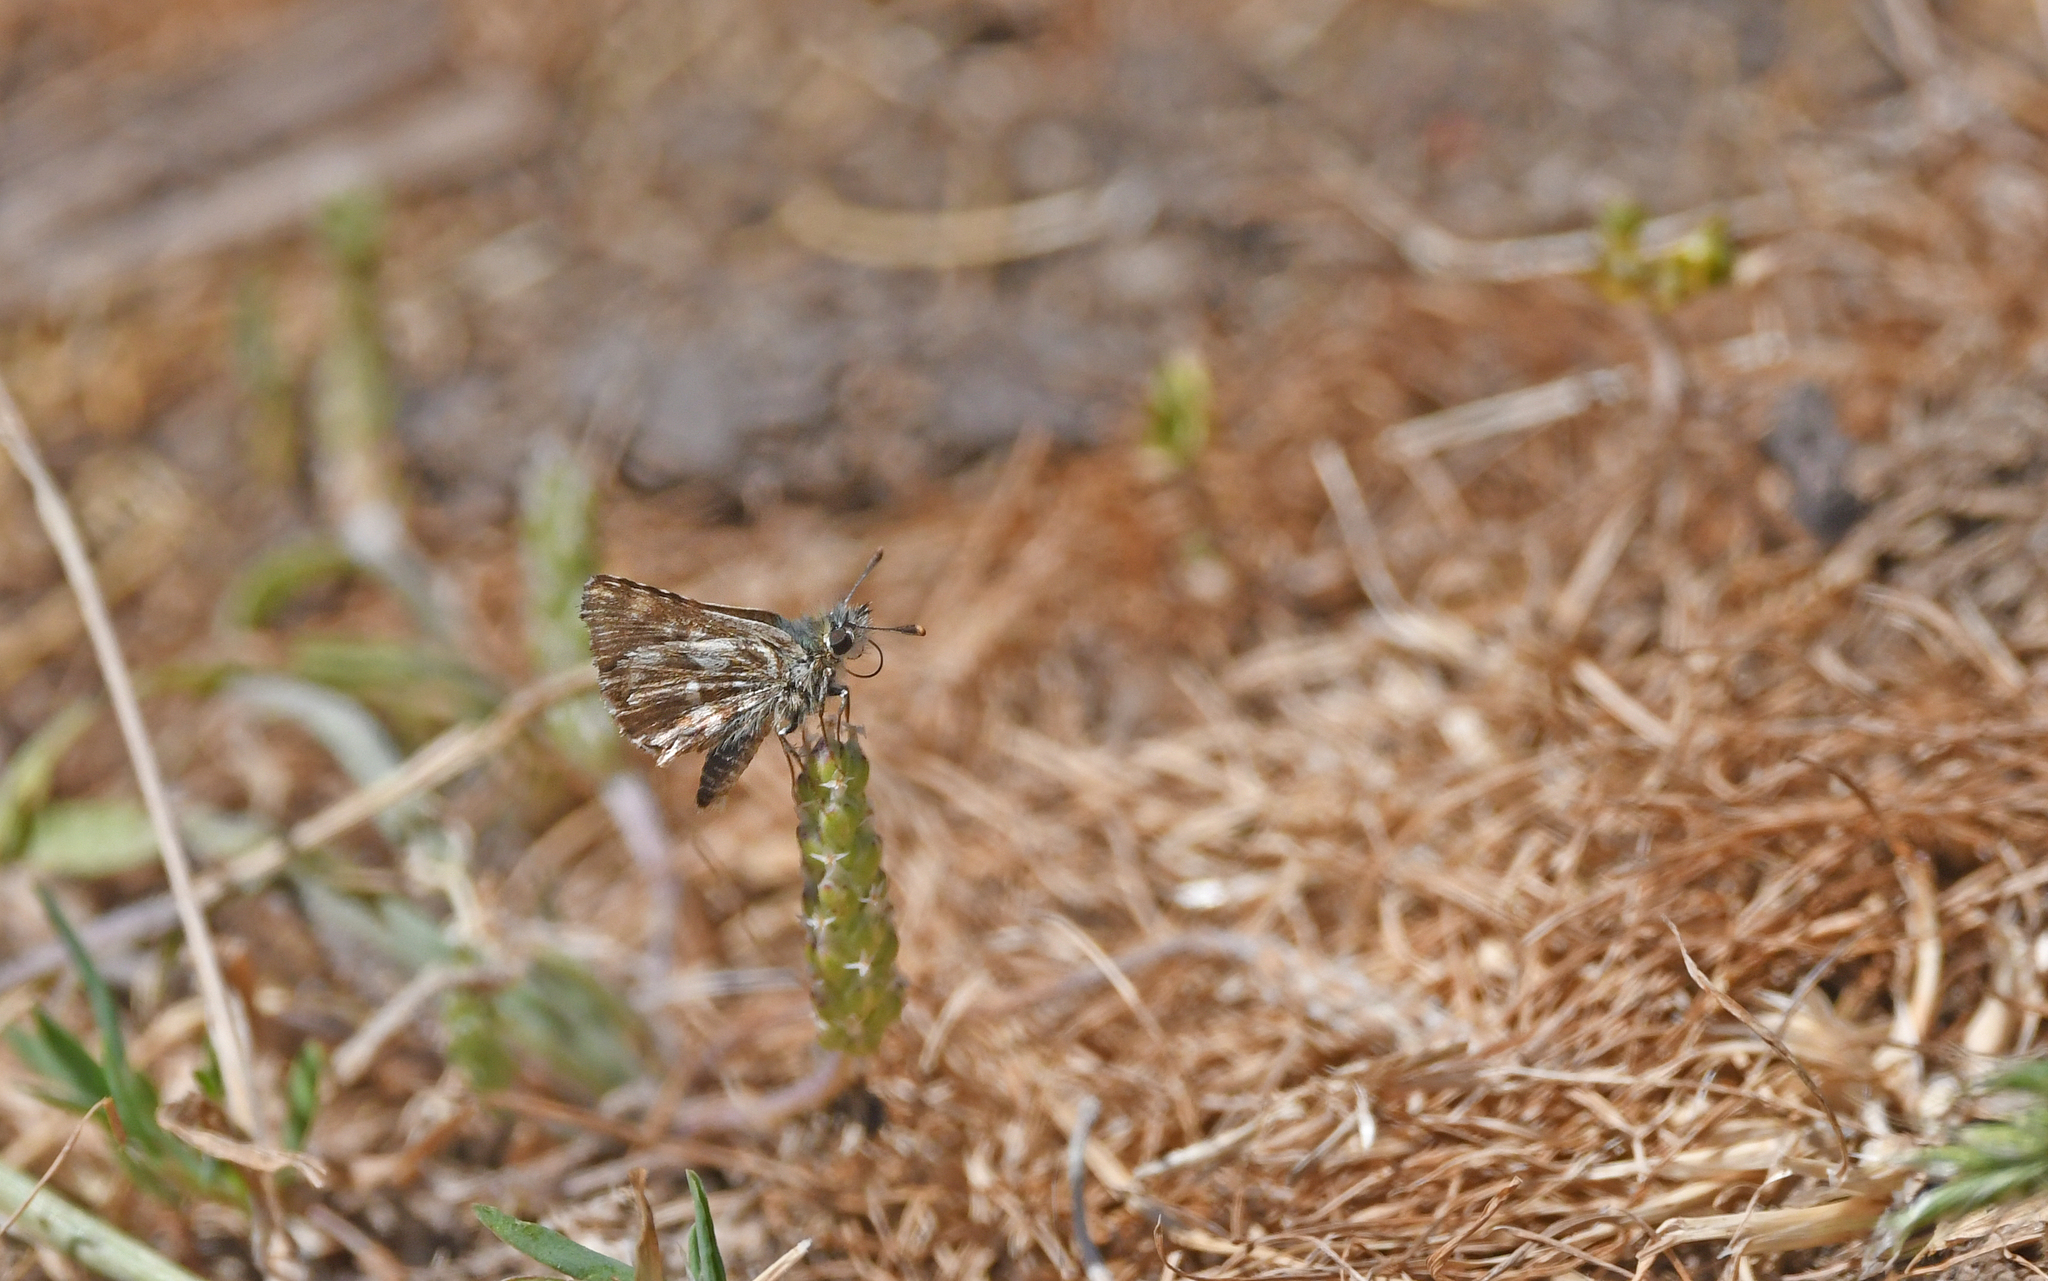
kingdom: Animalia
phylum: Arthropoda
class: Insecta
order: Lepidoptera
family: Hesperiidae
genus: Spialia
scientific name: Spialia sertorius
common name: Red underwing skipper
